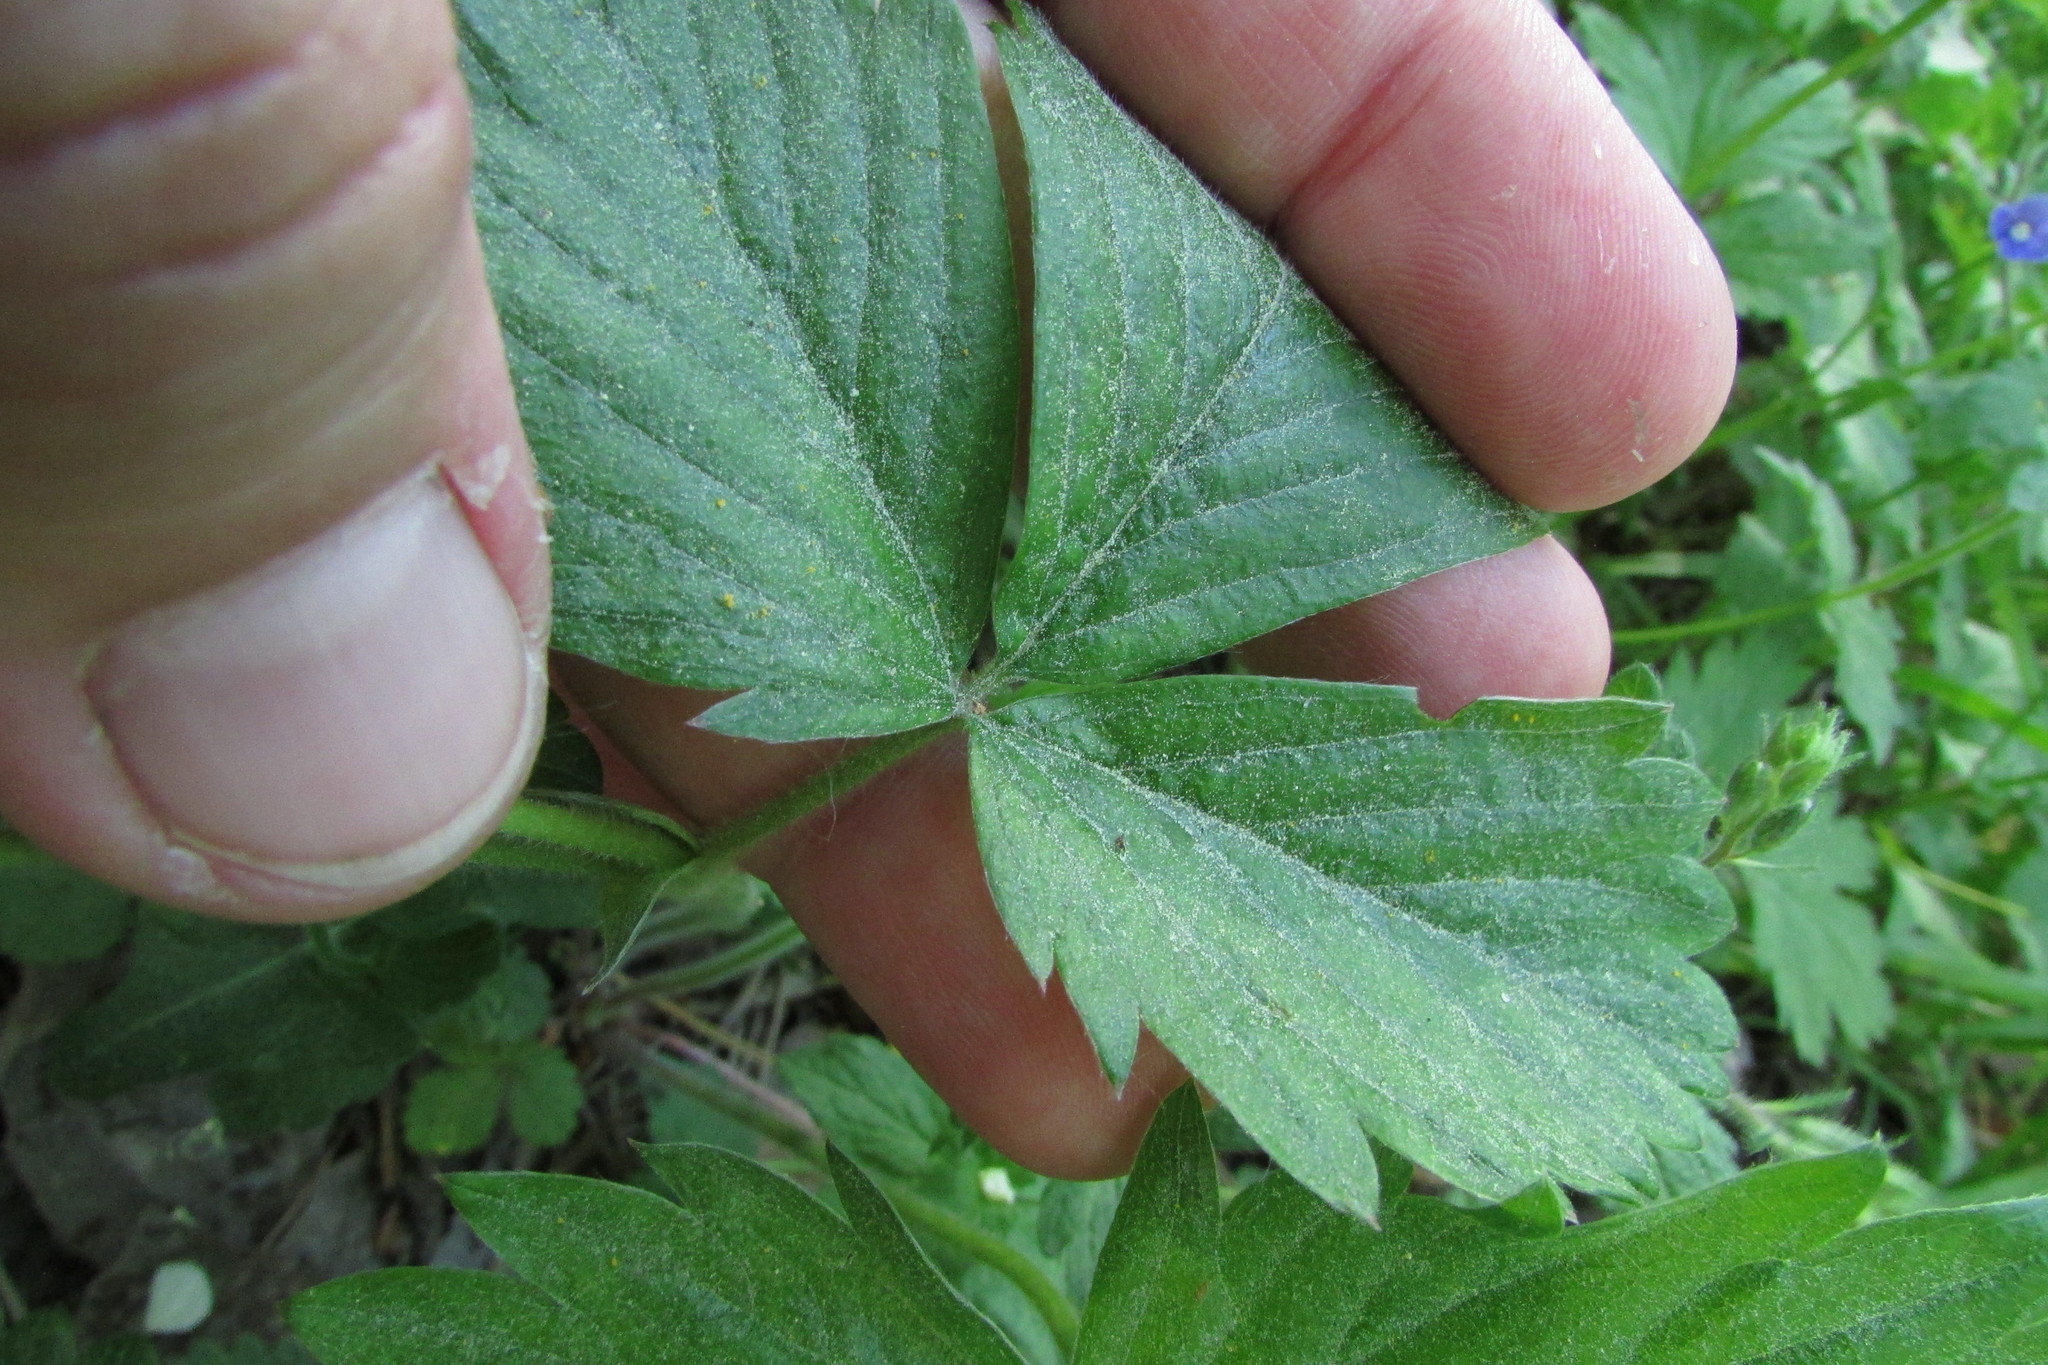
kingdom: Plantae
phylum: Tracheophyta
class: Magnoliopsida
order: Rosales
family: Rosaceae
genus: Fragaria
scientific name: Fragaria vesca
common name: Wild strawberry
